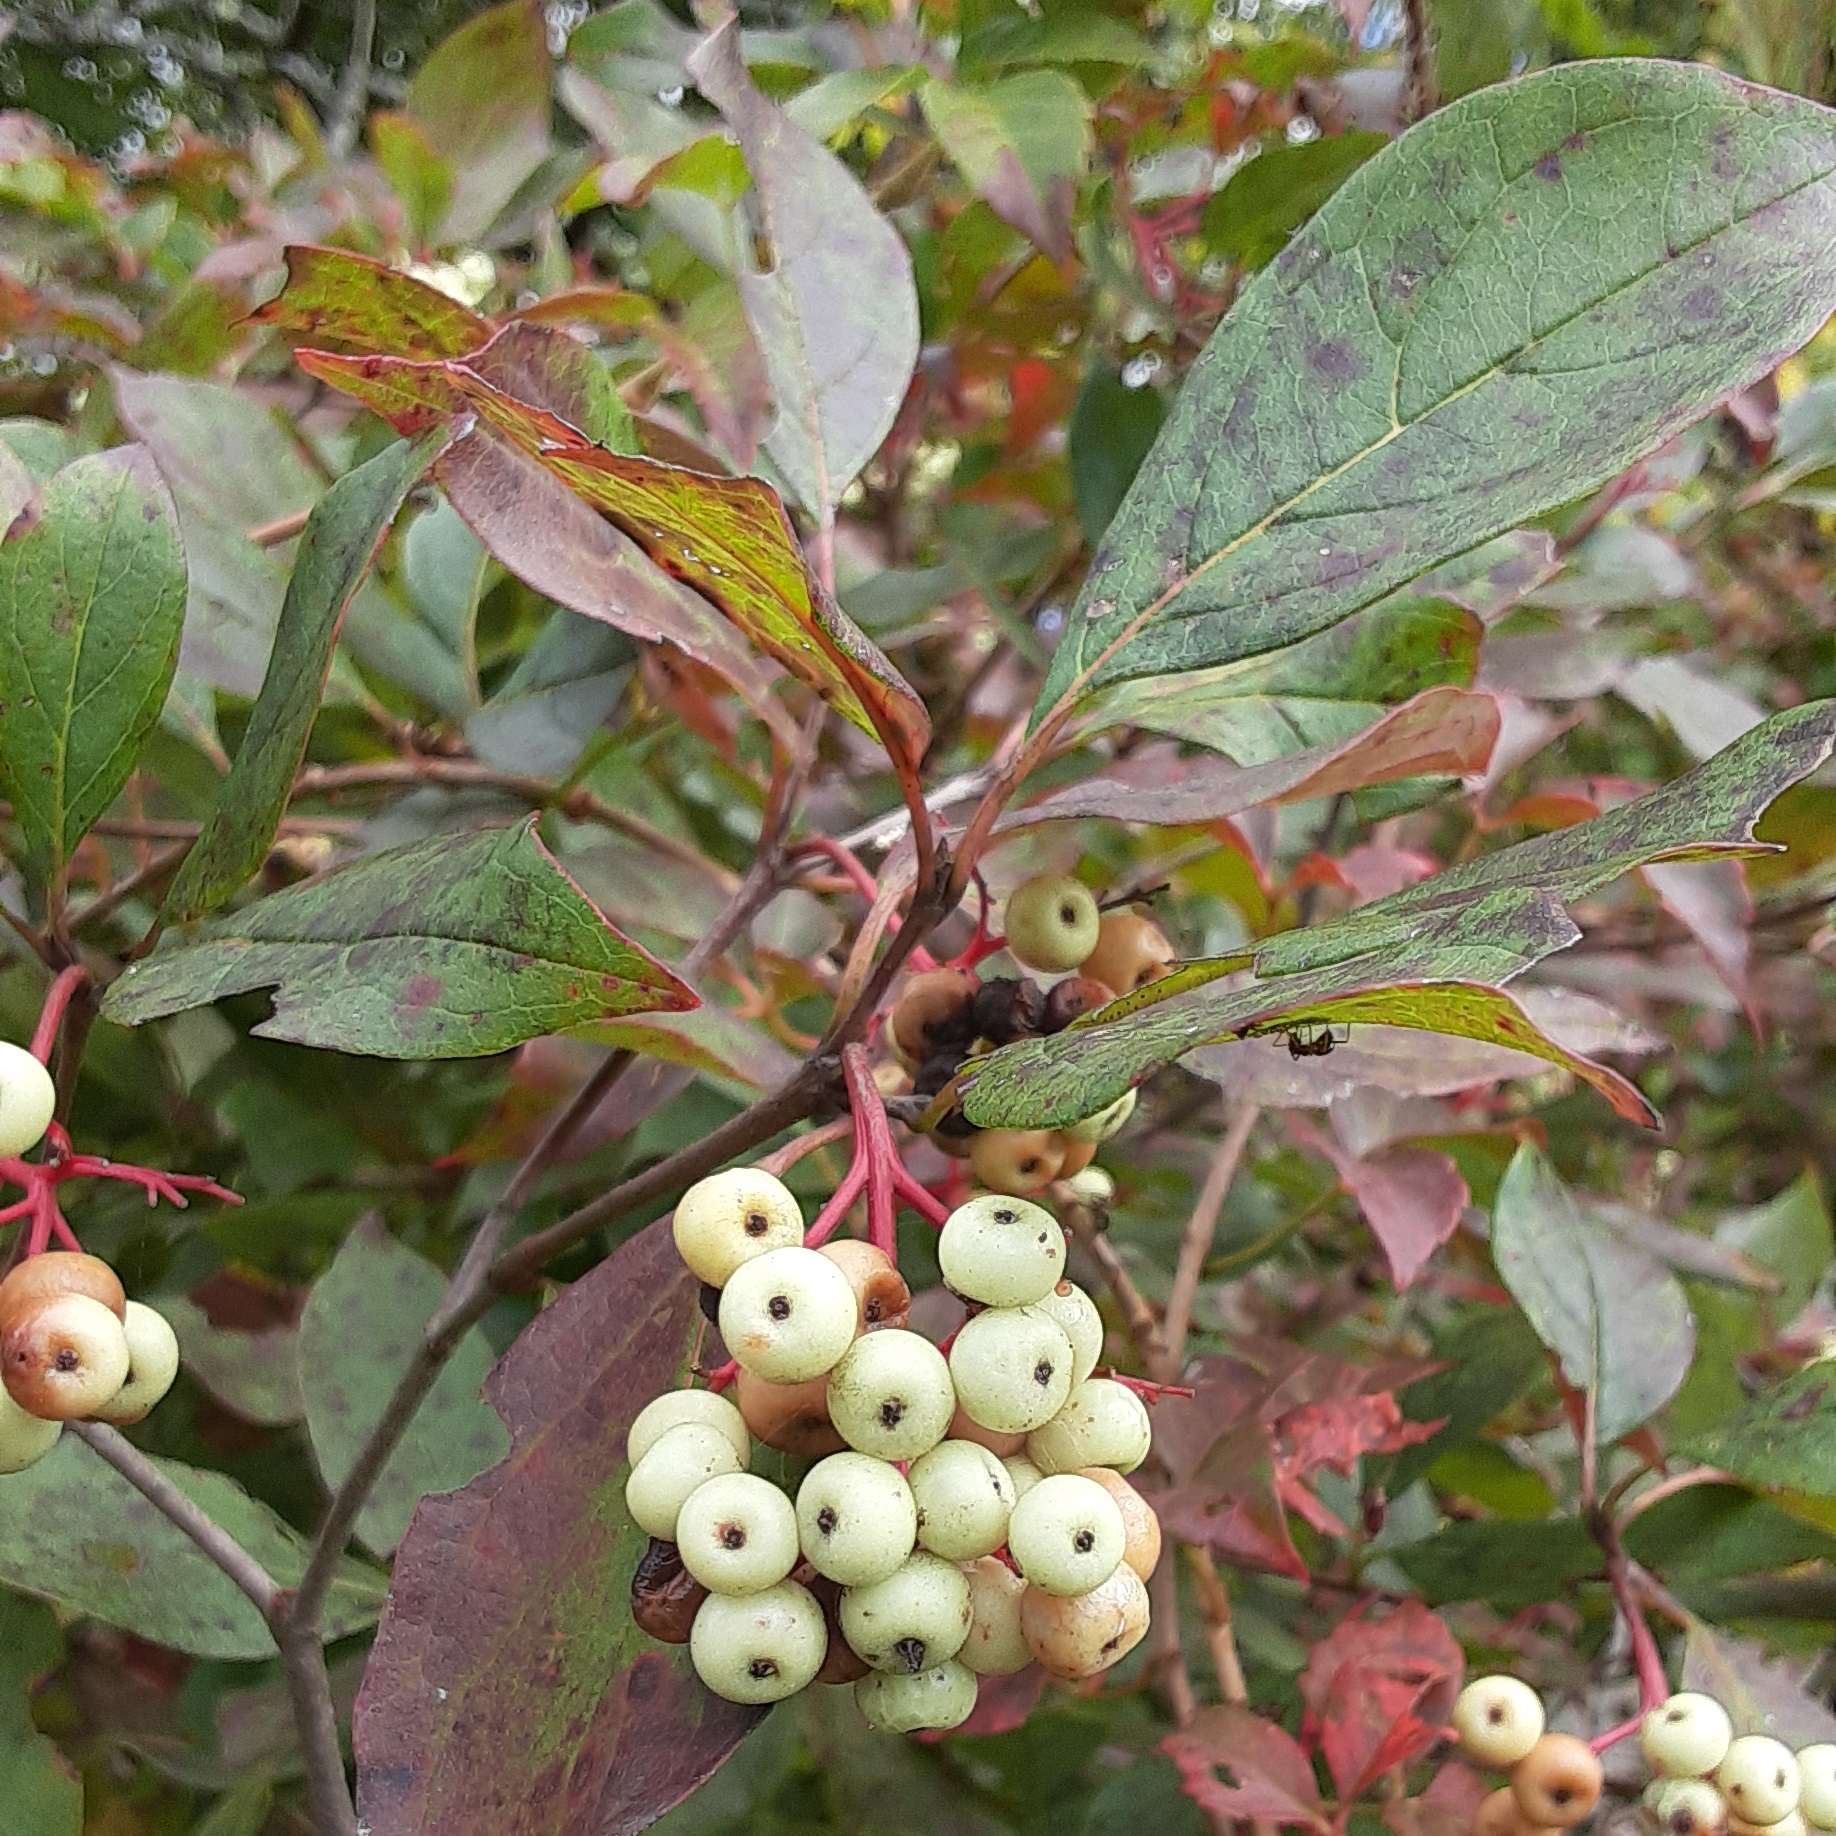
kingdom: Plantae
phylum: Tracheophyta
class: Magnoliopsida
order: Cornales
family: Cornaceae
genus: Cornus
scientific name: Cornus racemosa
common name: Panicled dogwood
